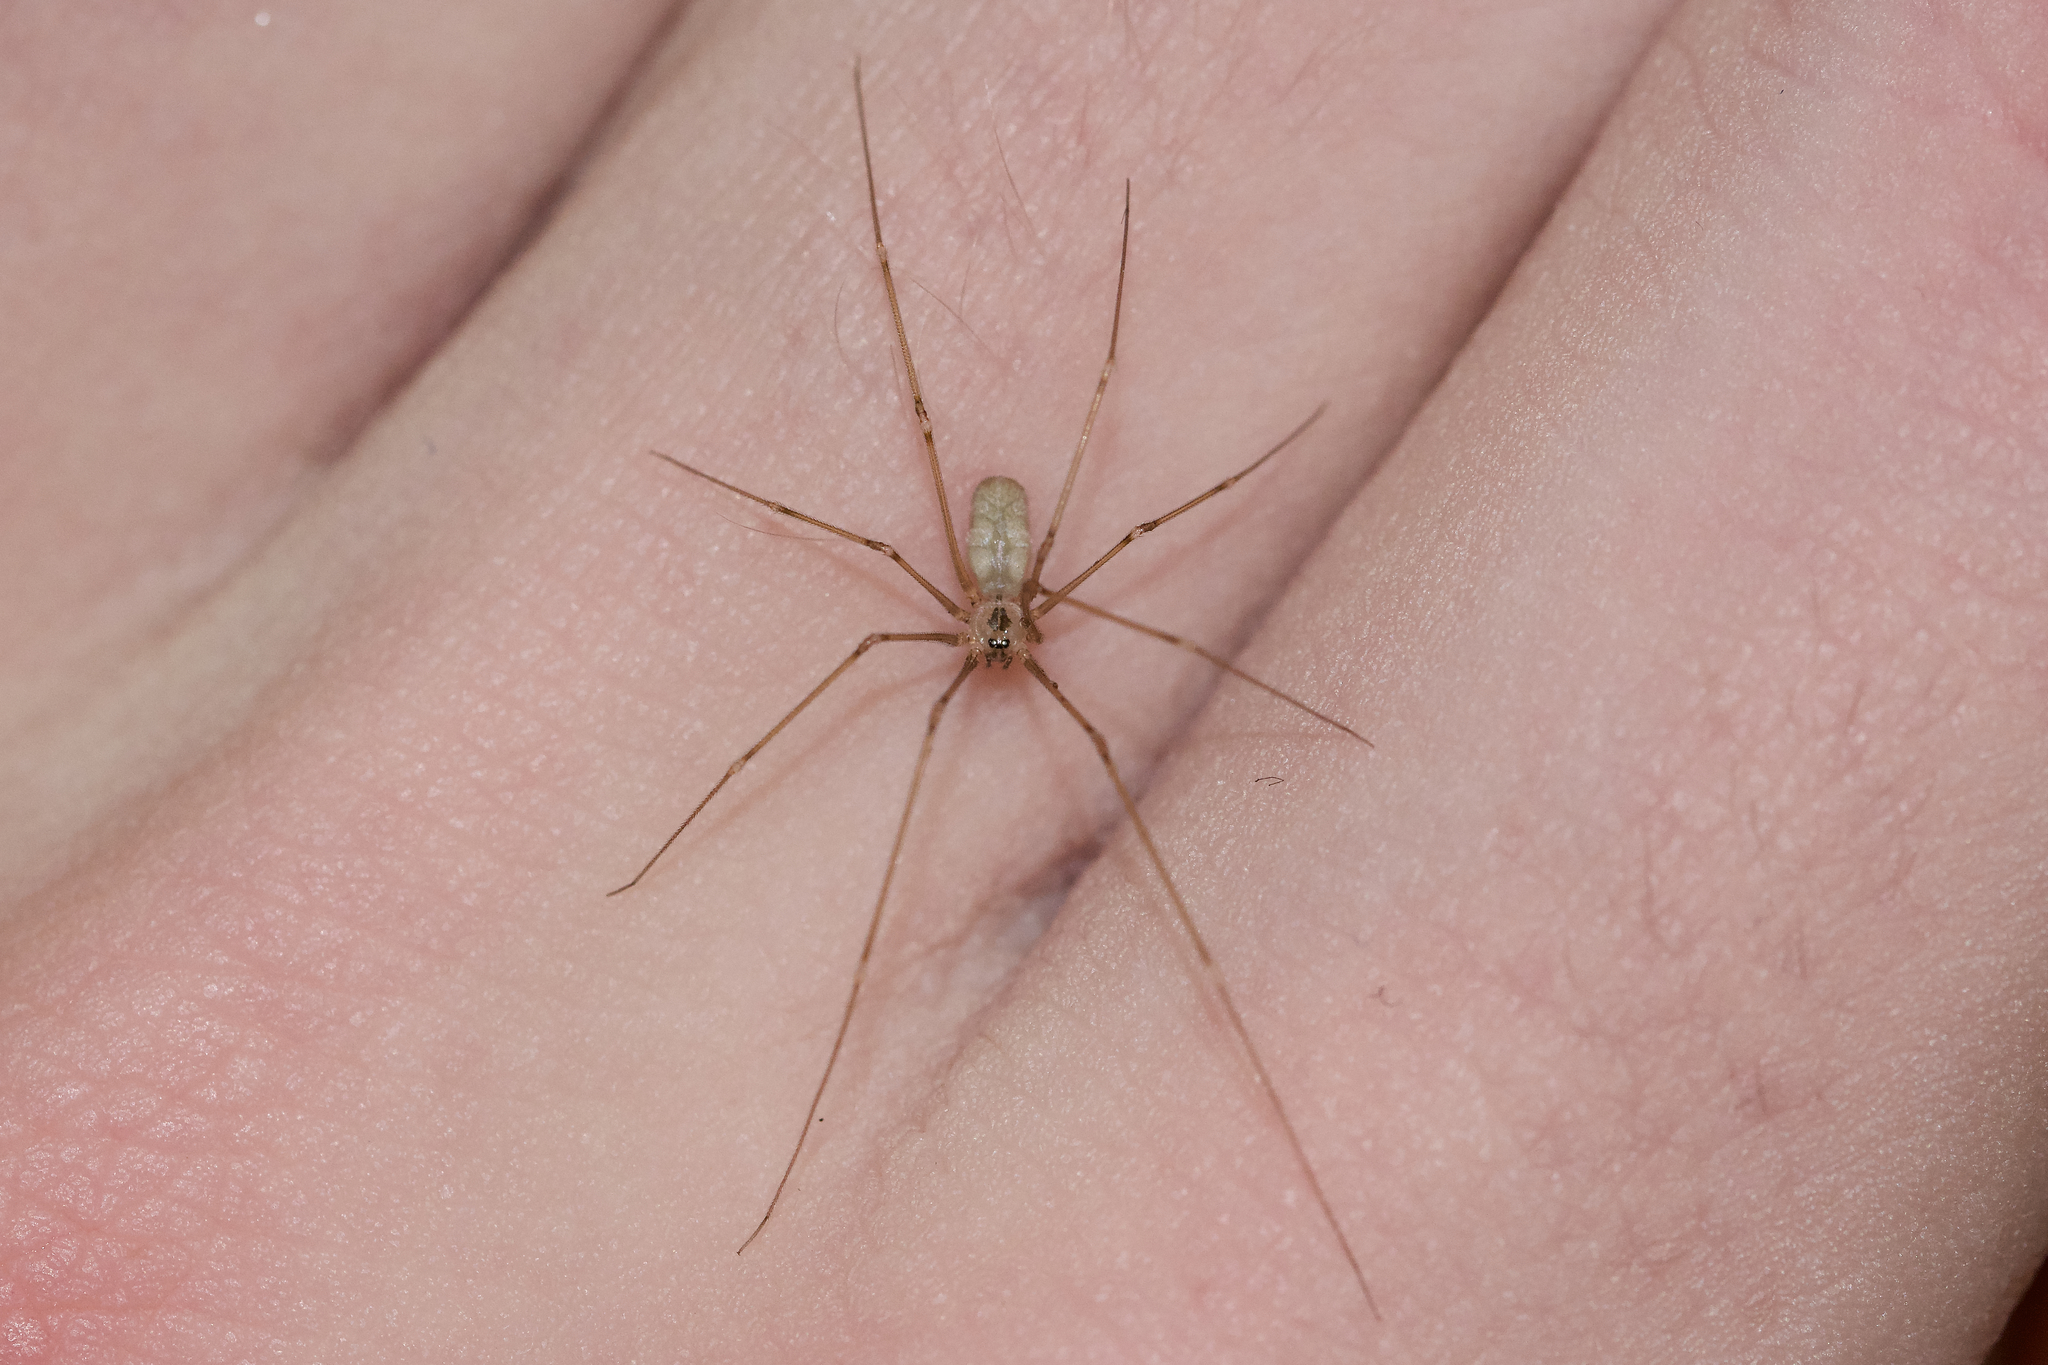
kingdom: Animalia
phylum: Arthropoda
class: Arachnida
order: Araneae
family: Pholcidae
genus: Pholcus
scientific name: Pholcus manueli
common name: Cellar spider
